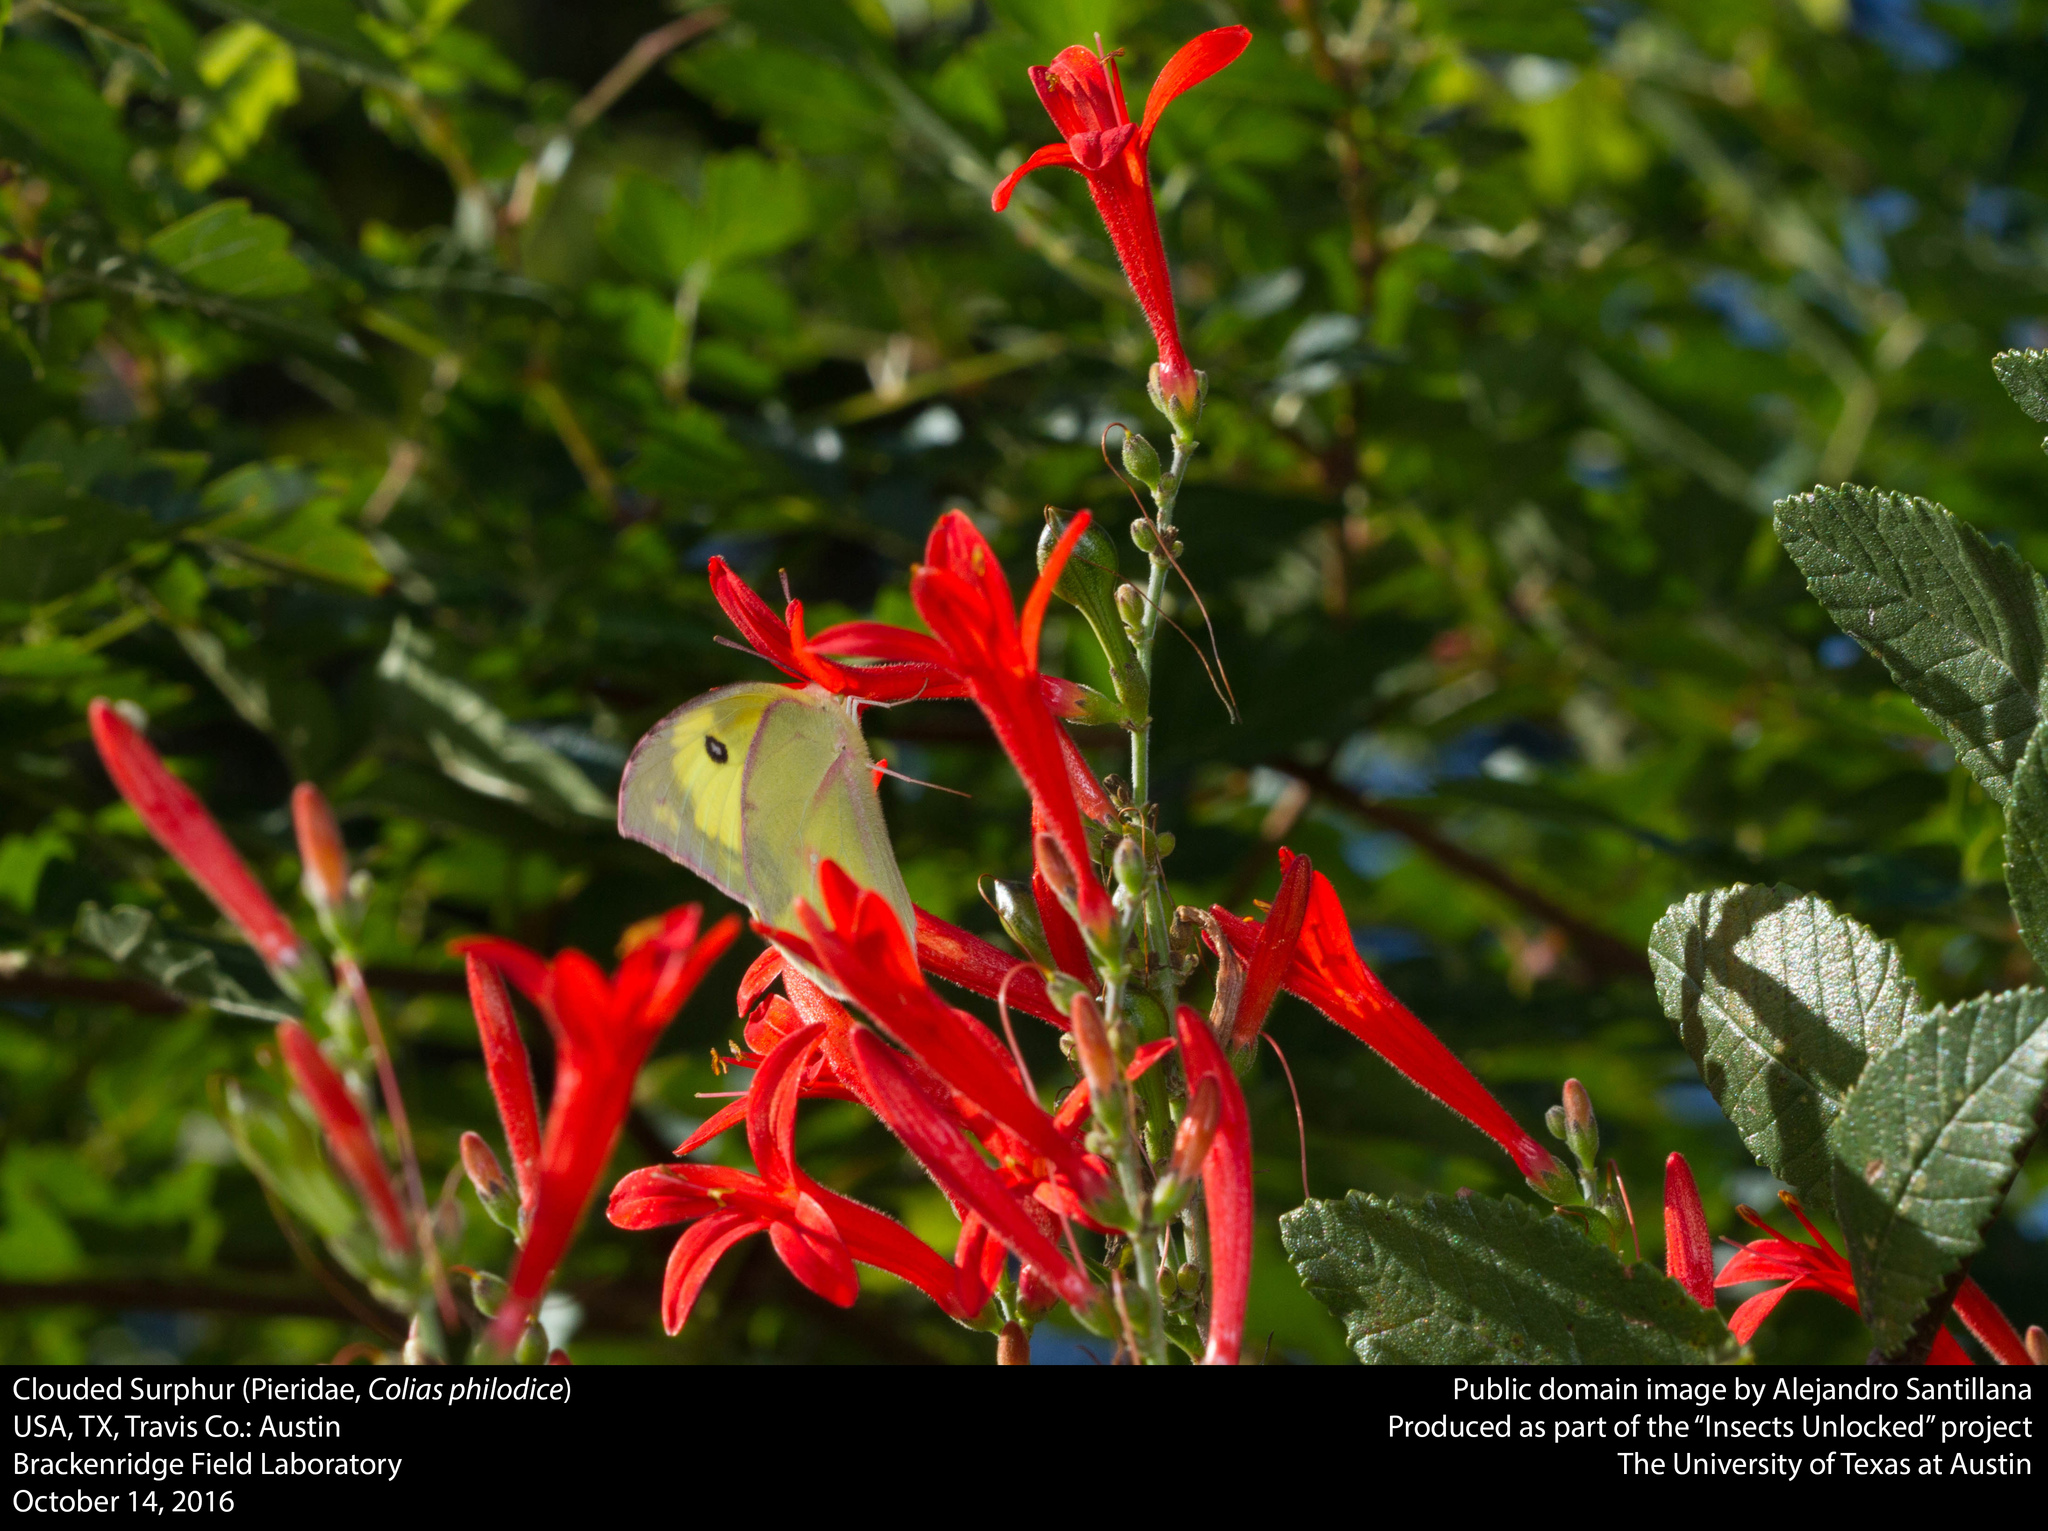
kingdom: Animalia
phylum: Arthropoda
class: Insecta
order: Lepidoptera
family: Pieridae
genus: Zerene
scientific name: Zerene cesonia
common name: Southern dogface
